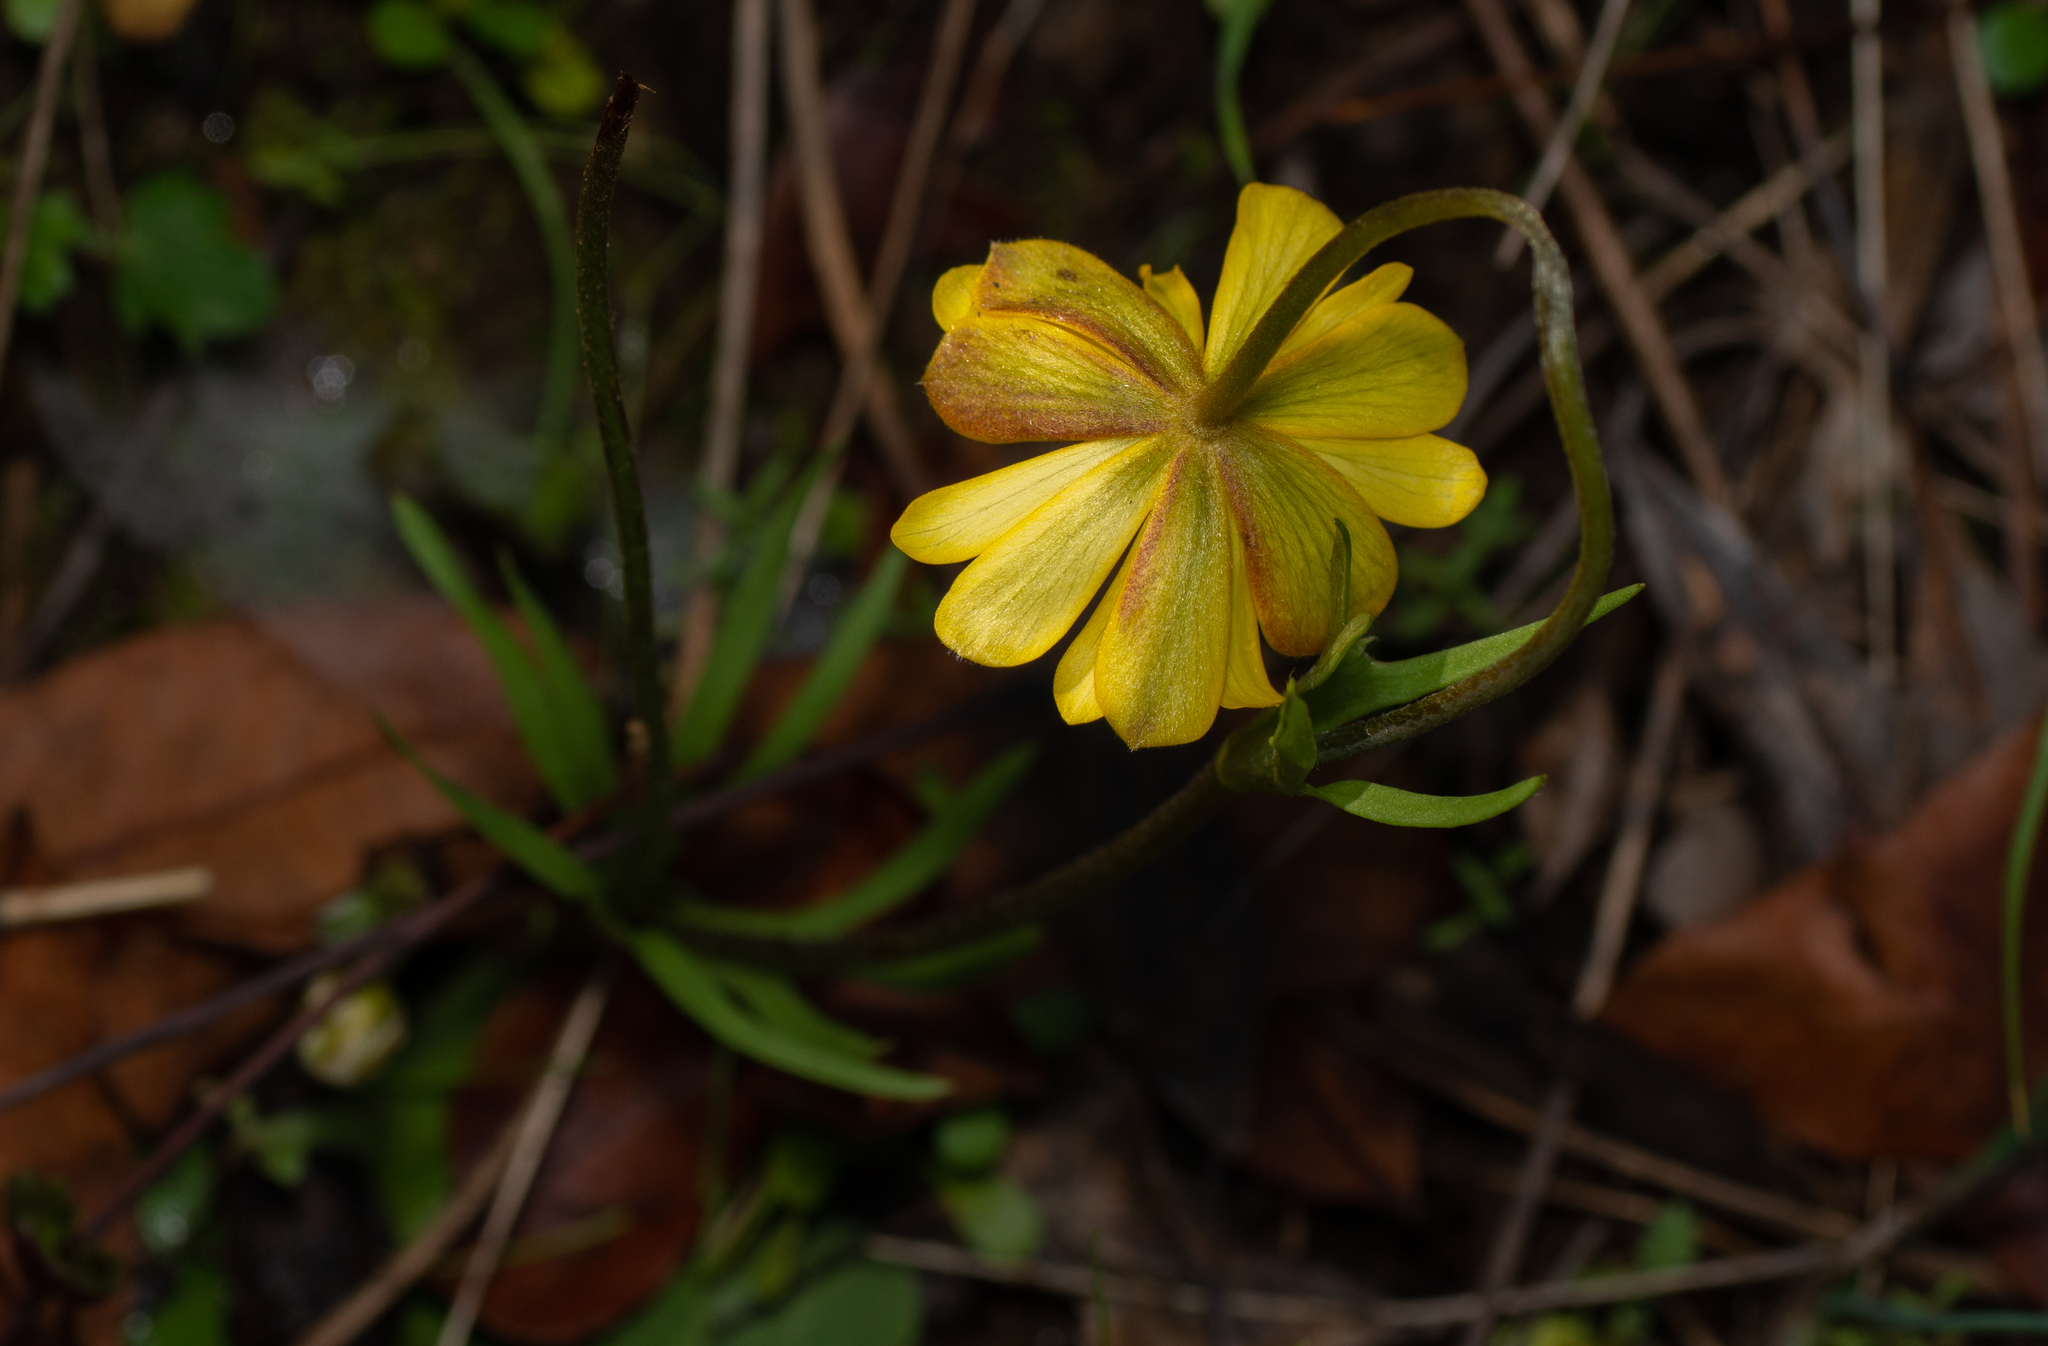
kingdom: Plantae
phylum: Tracheophyta
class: Magnoliopsida
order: Ranunculales
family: Ranunculaceae
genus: Anemone
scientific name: Anemone palmata
